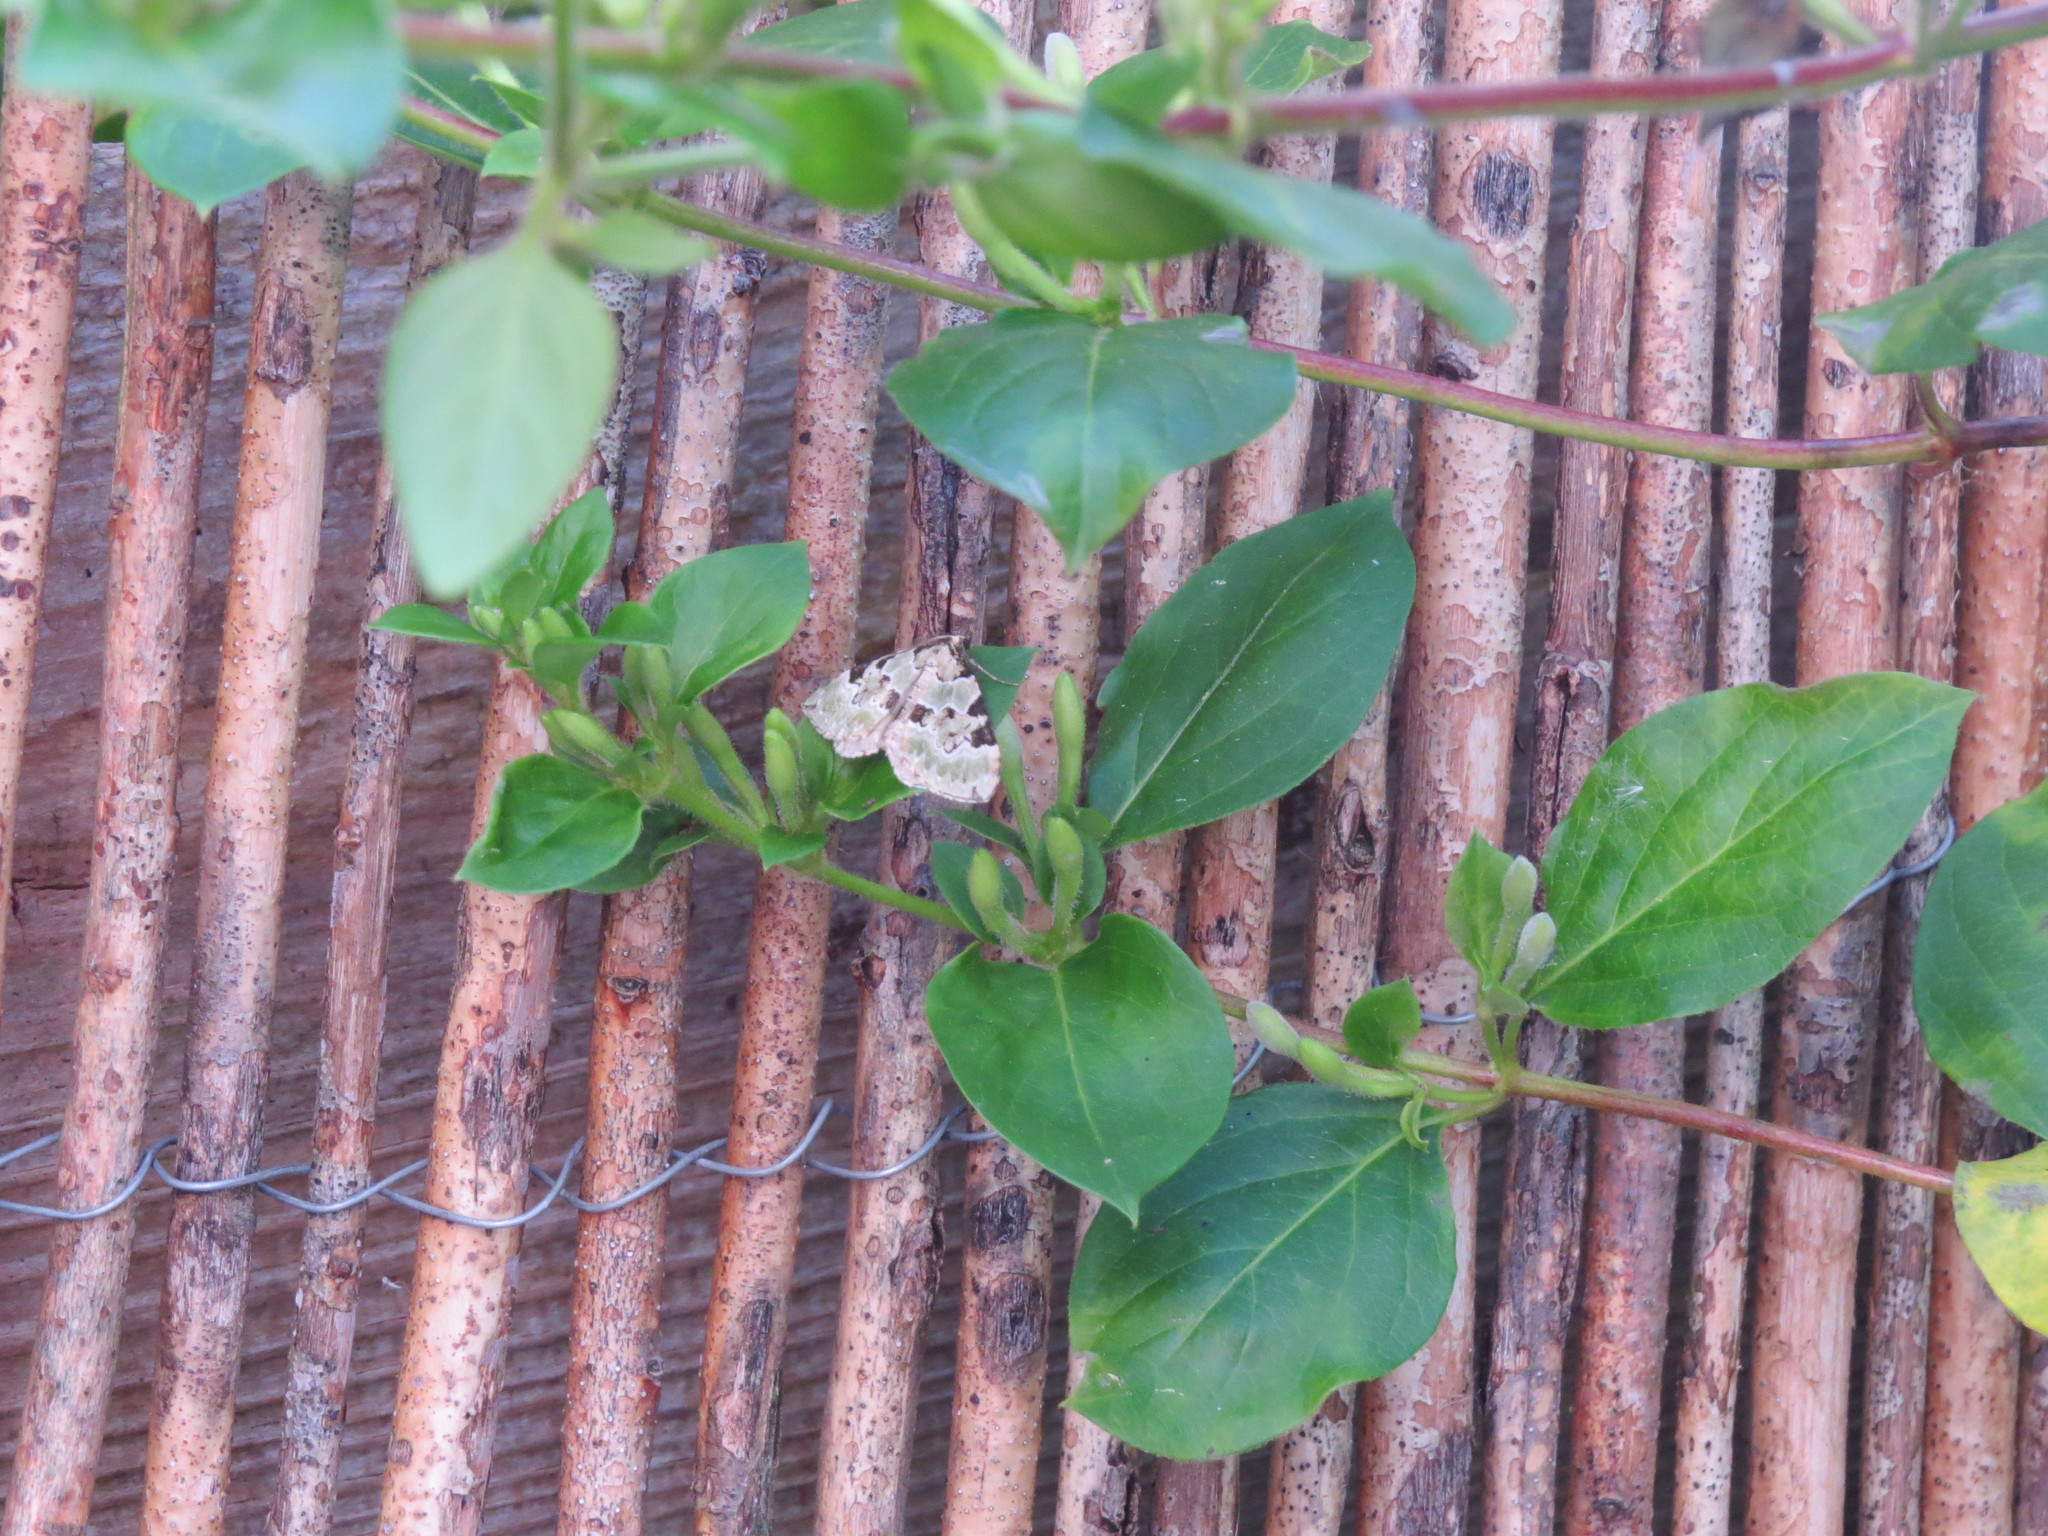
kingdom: Plantae
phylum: Tracheophyta
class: Magnoliopsida
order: Dipsacales
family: Caprifoliaceae
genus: Lonicera
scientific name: Lonicera japonica
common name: Japanese honeysuckle
